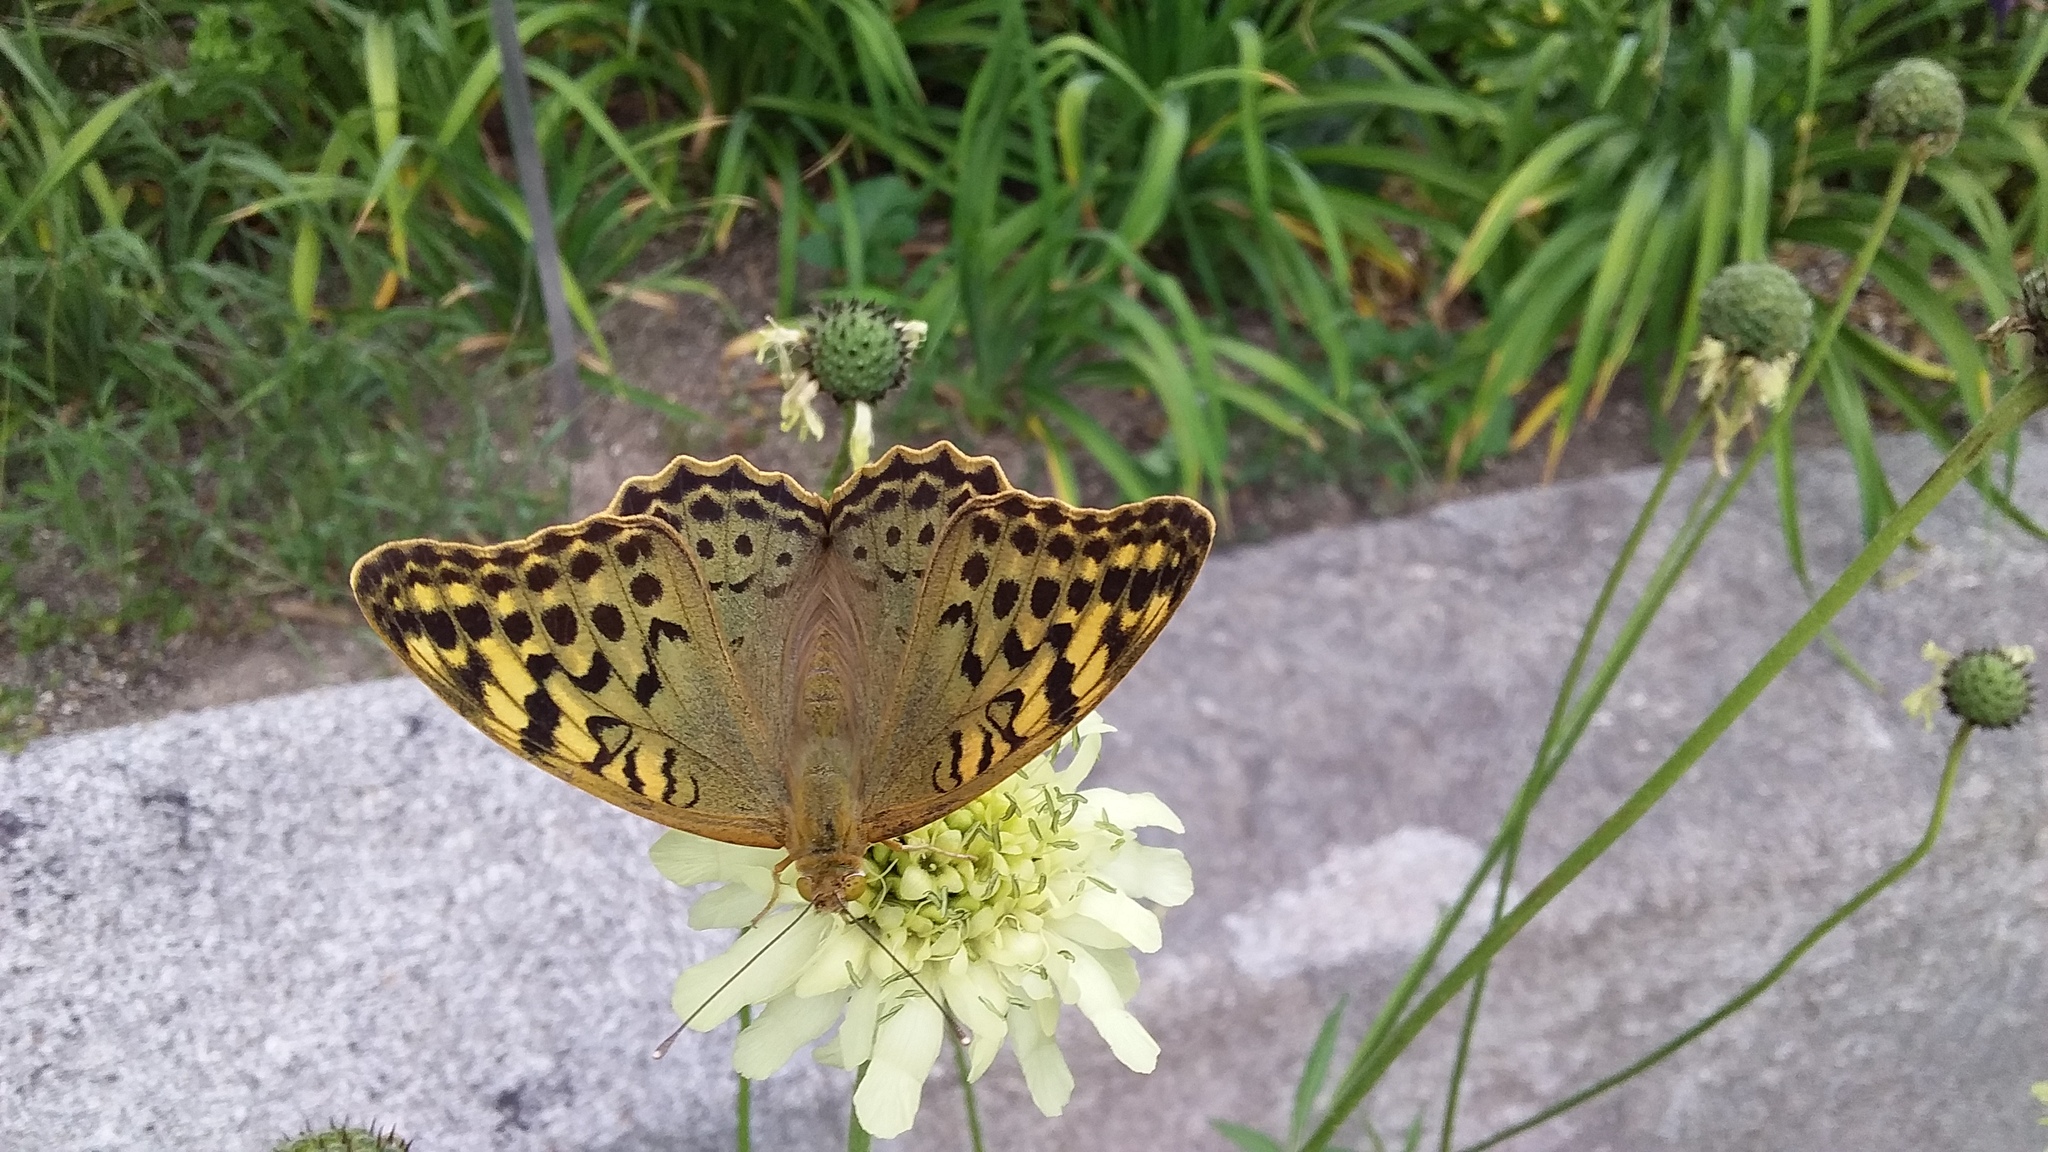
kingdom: Animalia
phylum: Arthropoda
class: Insecta
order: Lepidoptera
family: Nymphalidae
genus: Damora
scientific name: Damora pandora
